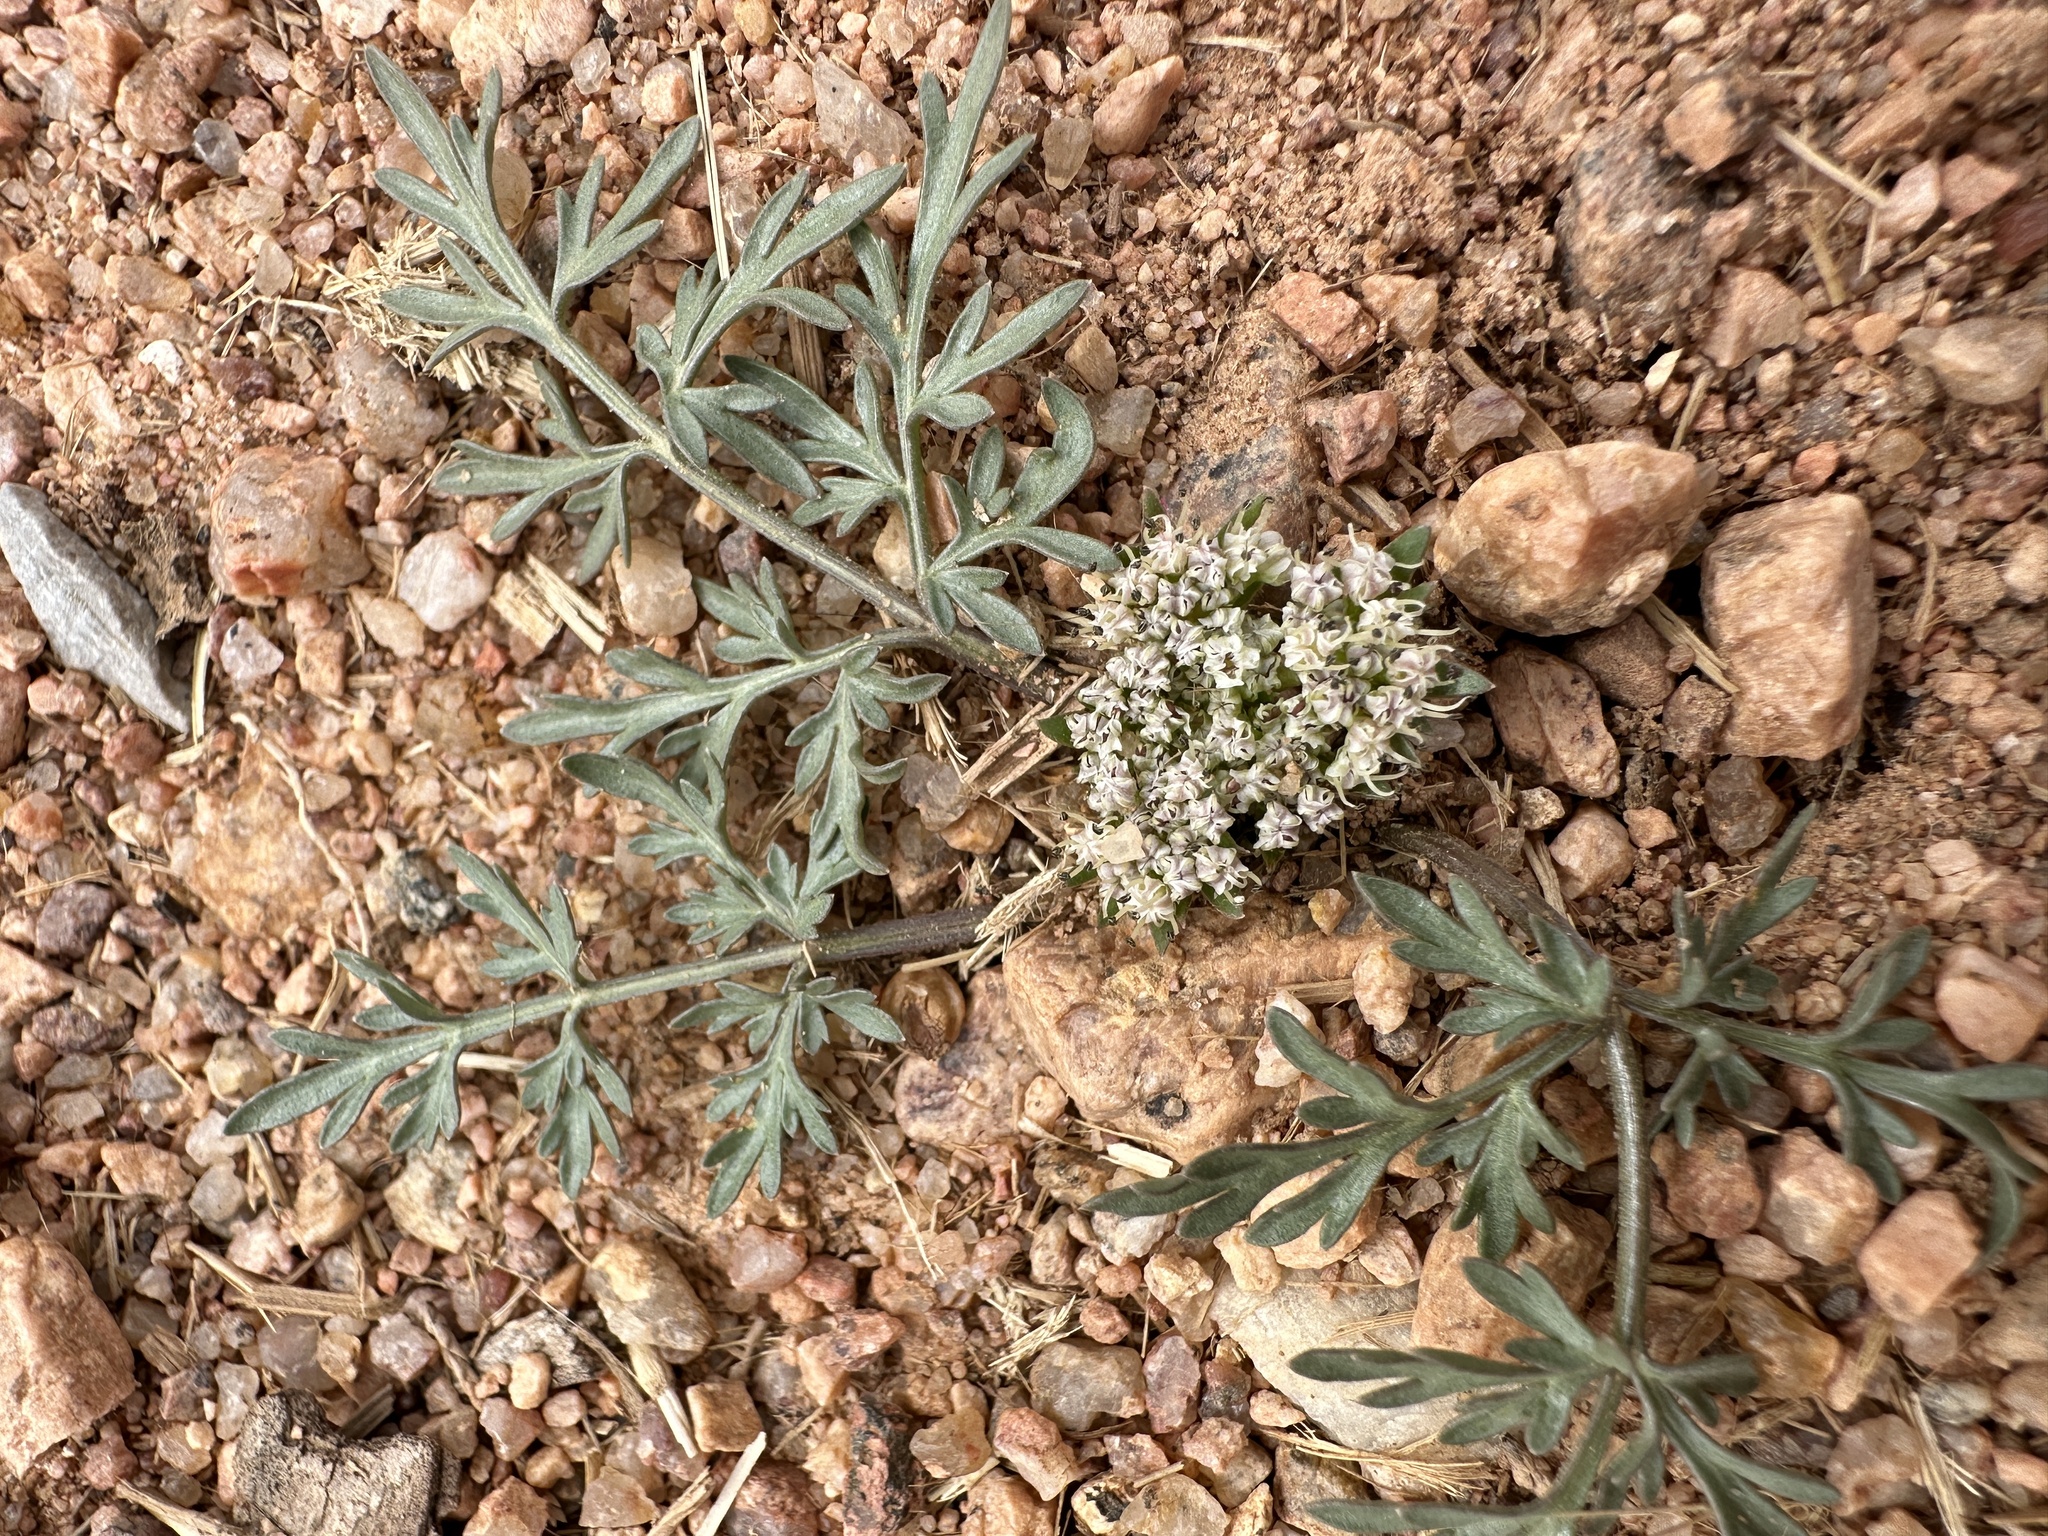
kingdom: Plantae
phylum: Tracheophyta
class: Magnoliopsida
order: Apiales
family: Apiaceae
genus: Cymopterus
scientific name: Cymopterus glomeratus
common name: Plains spring parsley
